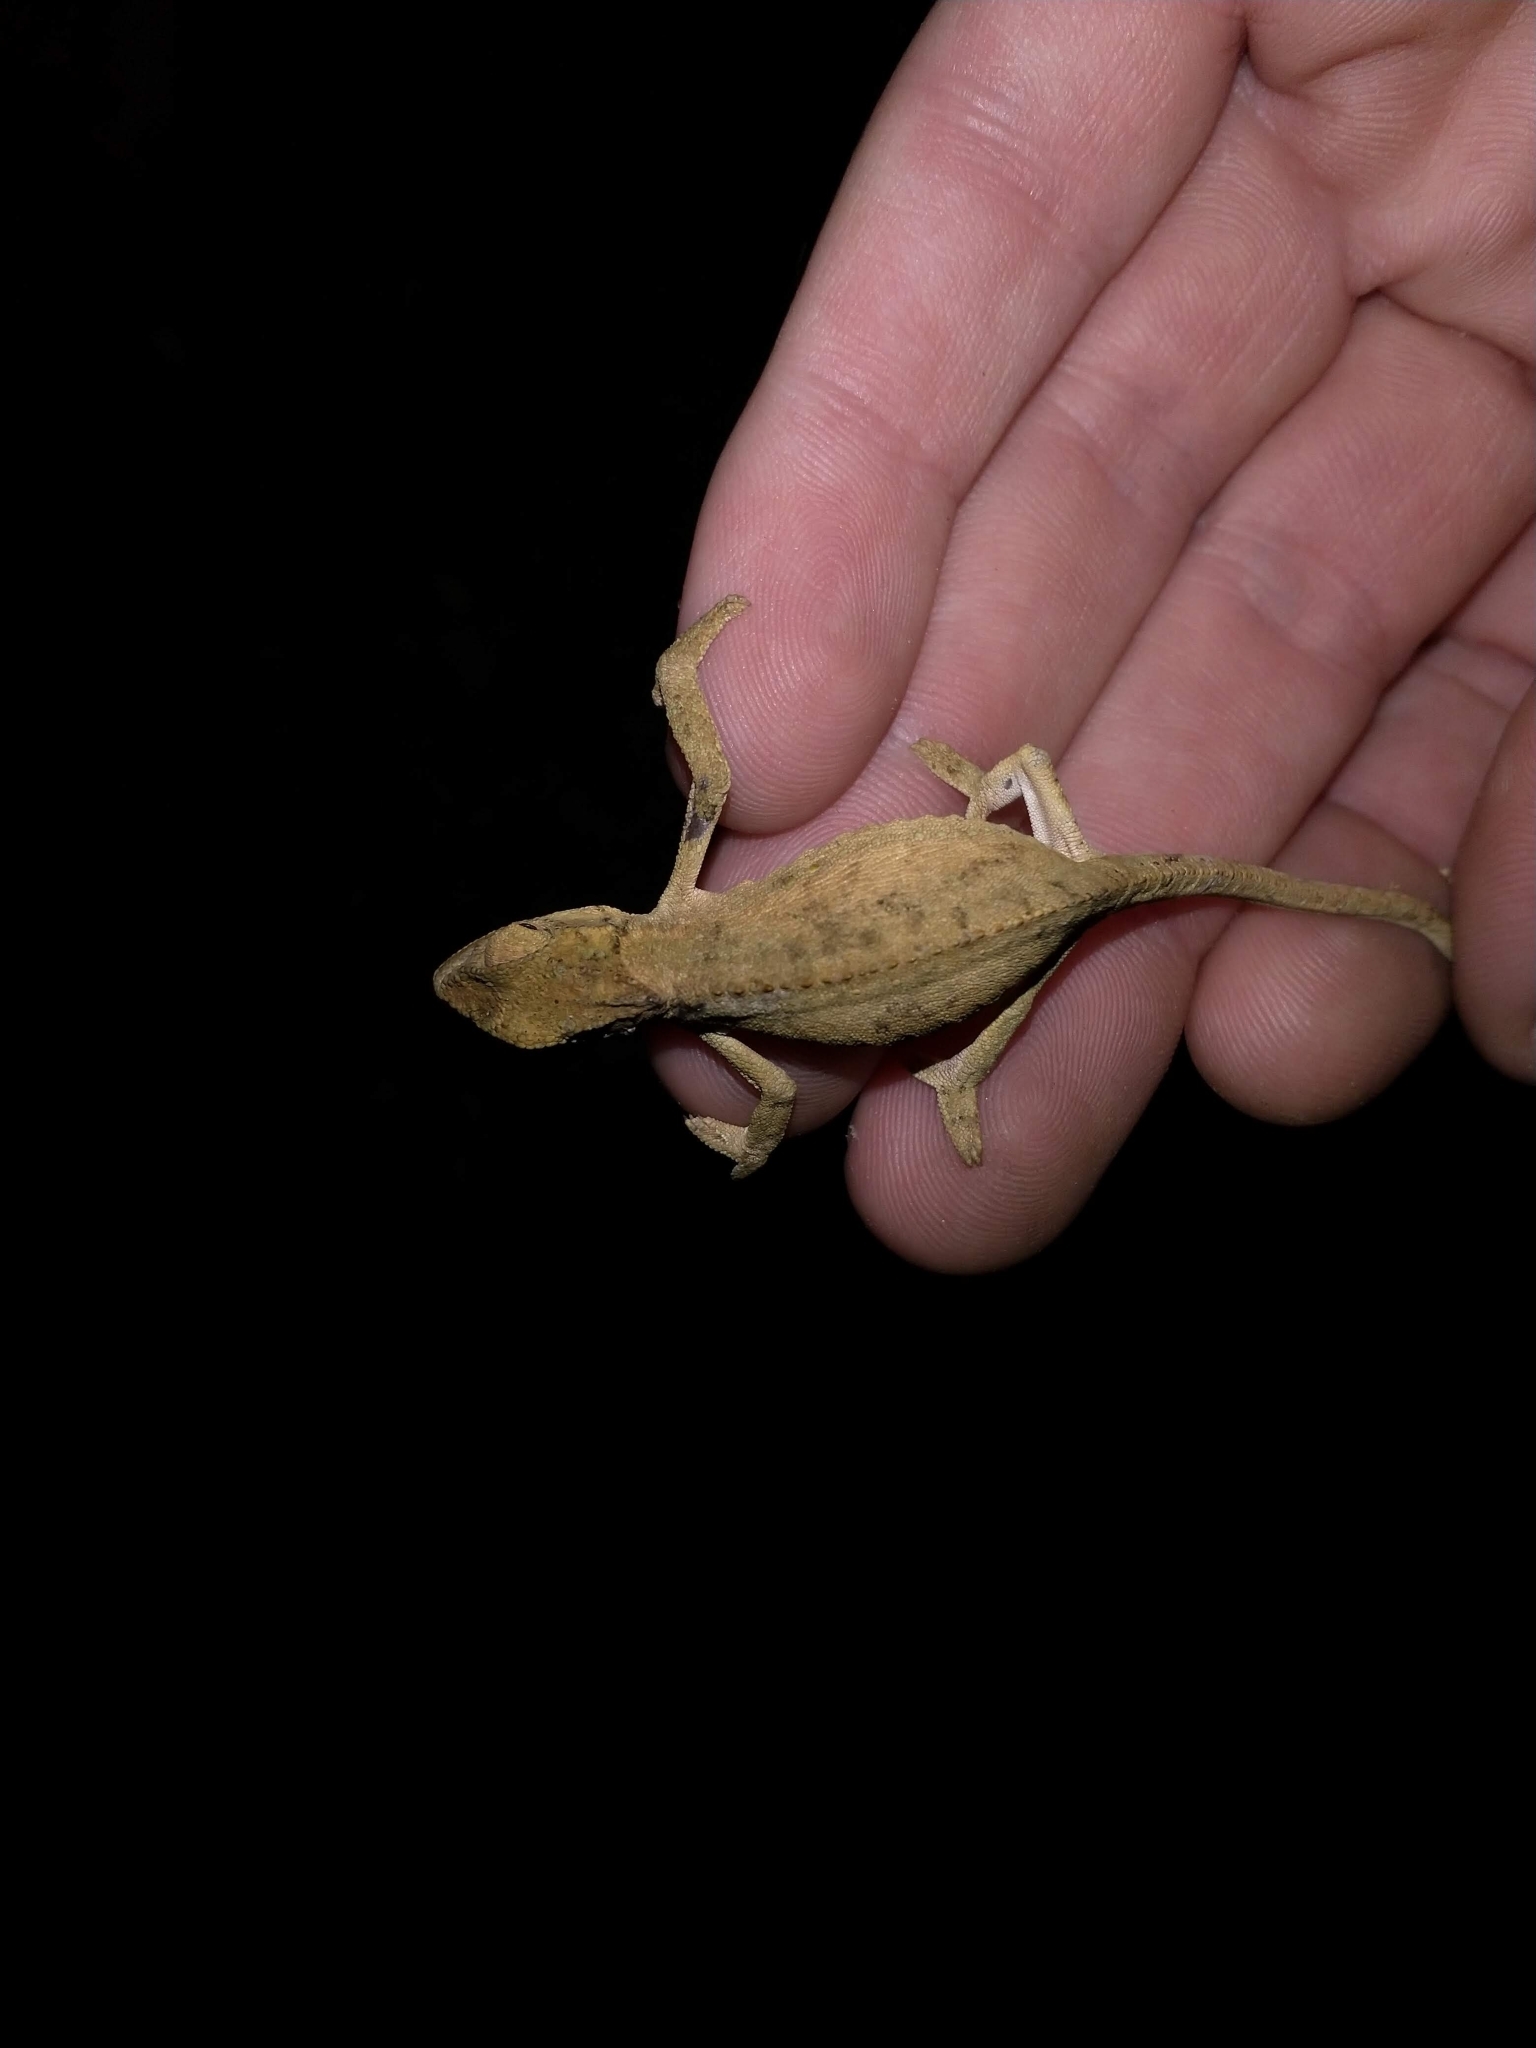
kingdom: Animalia
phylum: Chordata
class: Squamata
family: Chamaeleonidae
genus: Bradypodion
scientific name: Bradypodion melanocephalum
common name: Black-headed dwarf chameleon
